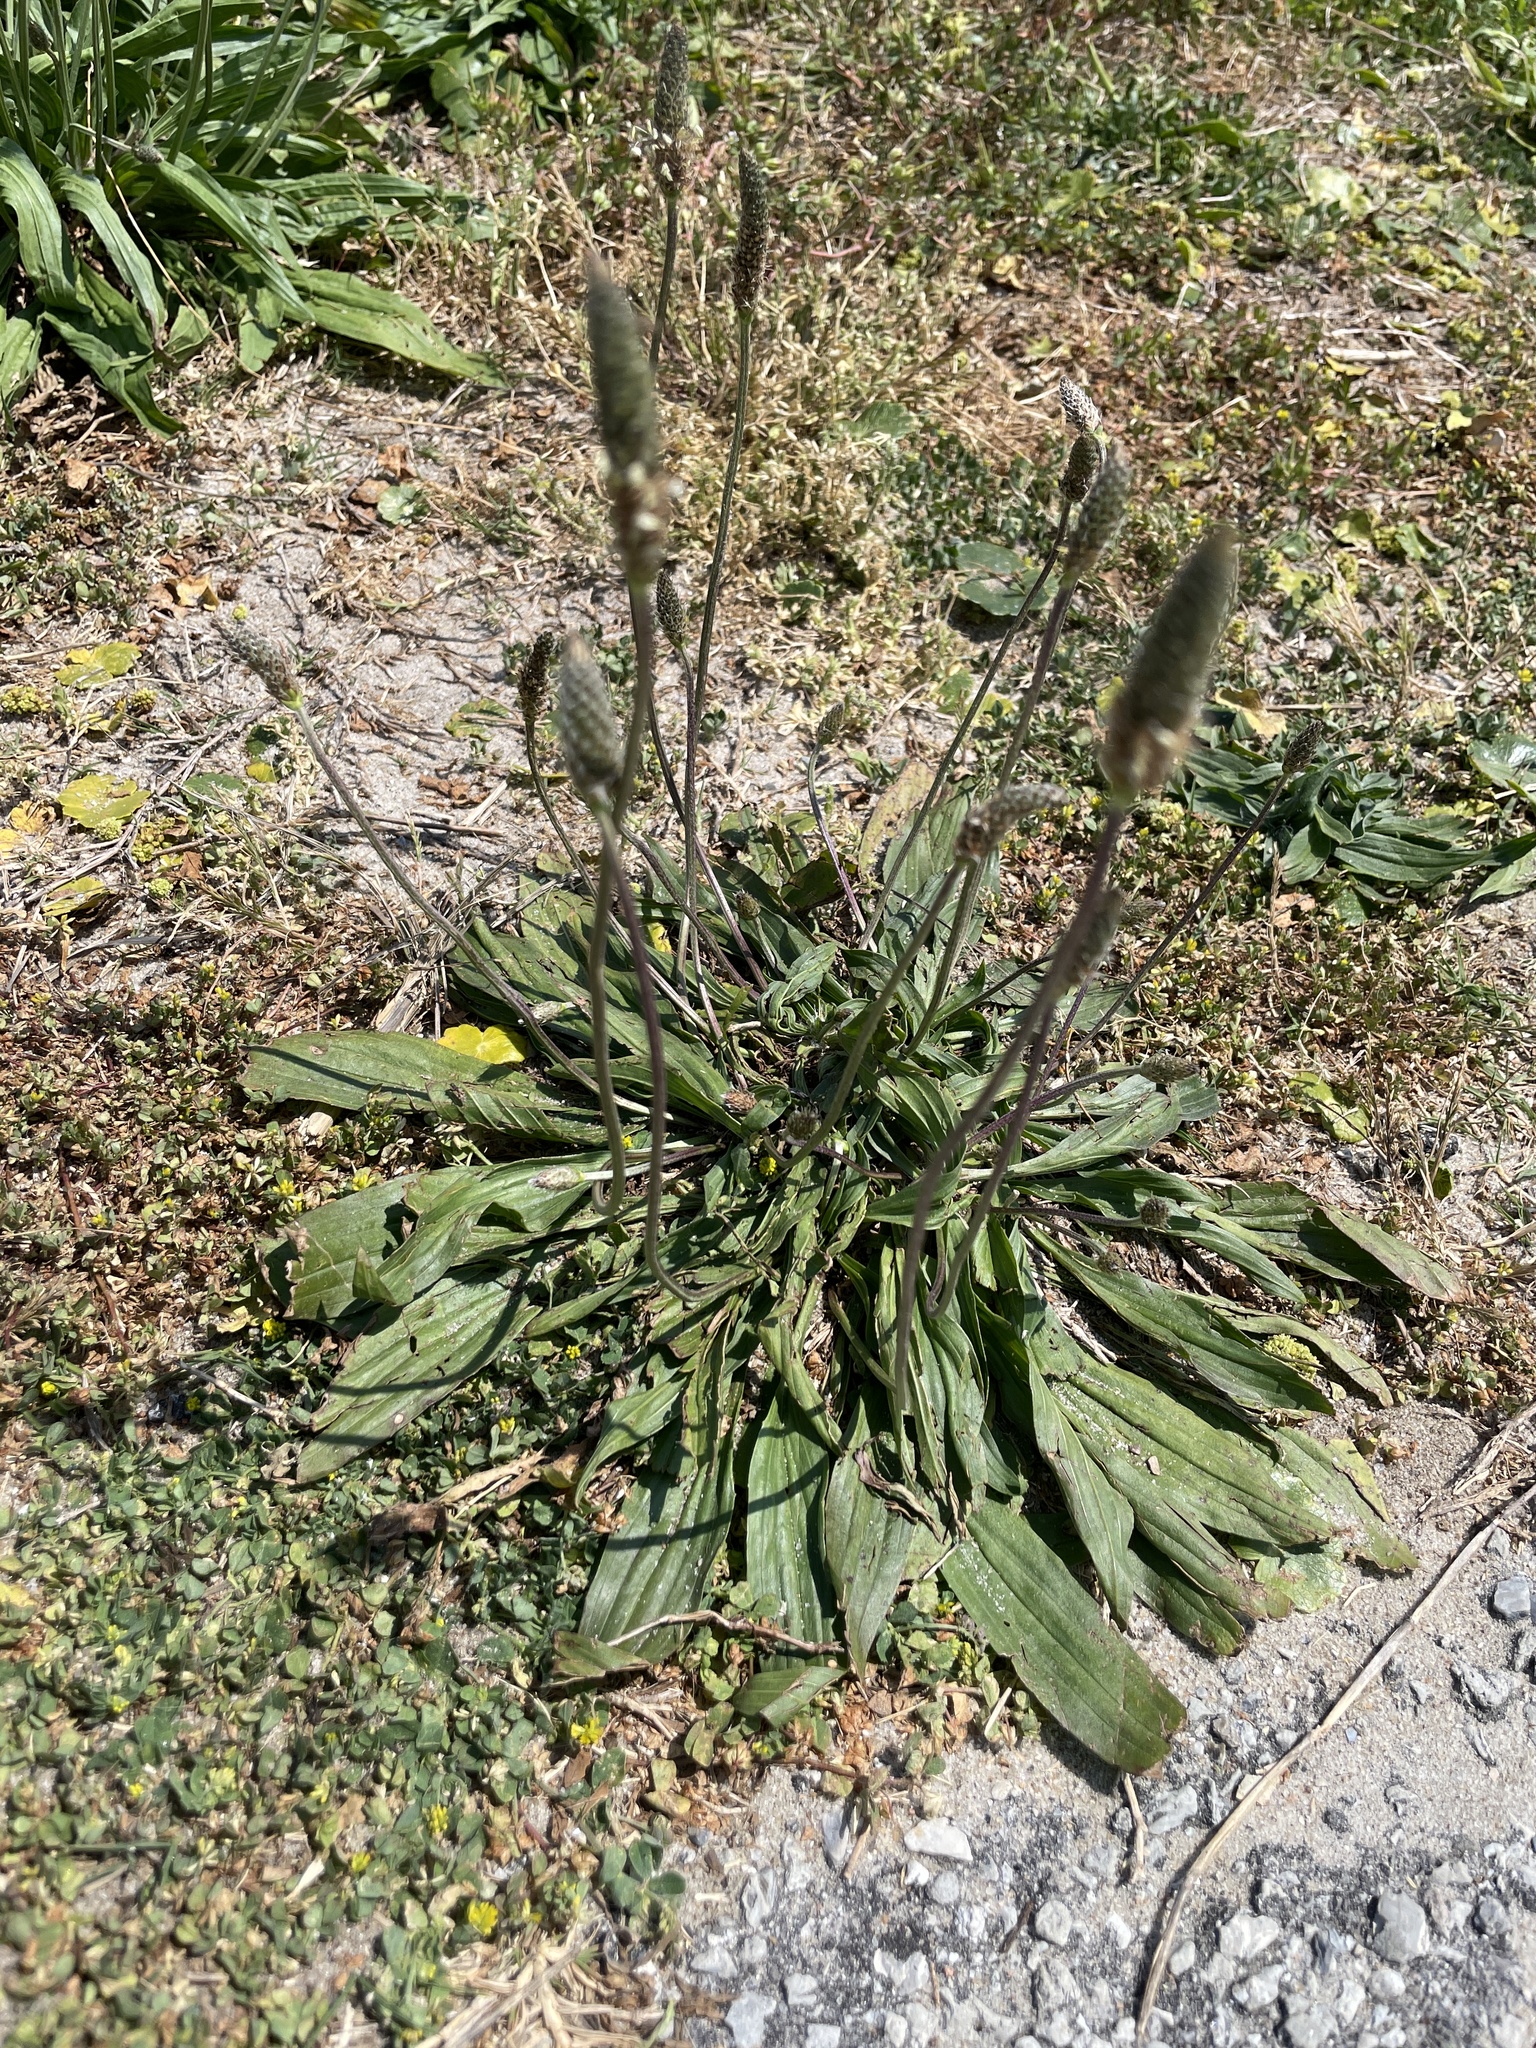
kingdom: Plantae
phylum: Tracheophyta
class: Magnoliopsida
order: Lamiales
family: Plantaginaceae
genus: Plantago
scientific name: Plantago lanceolata
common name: Ribwort plantain
